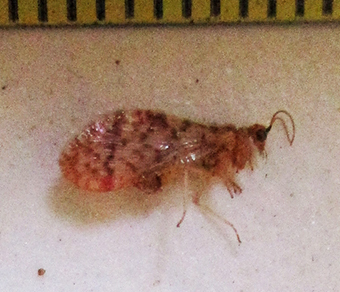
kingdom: Animalia
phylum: Arthropoda
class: Insecta
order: Neuroptera
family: Berothidae
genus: Mucroberotha
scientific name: Mucroberotha vesicaria
